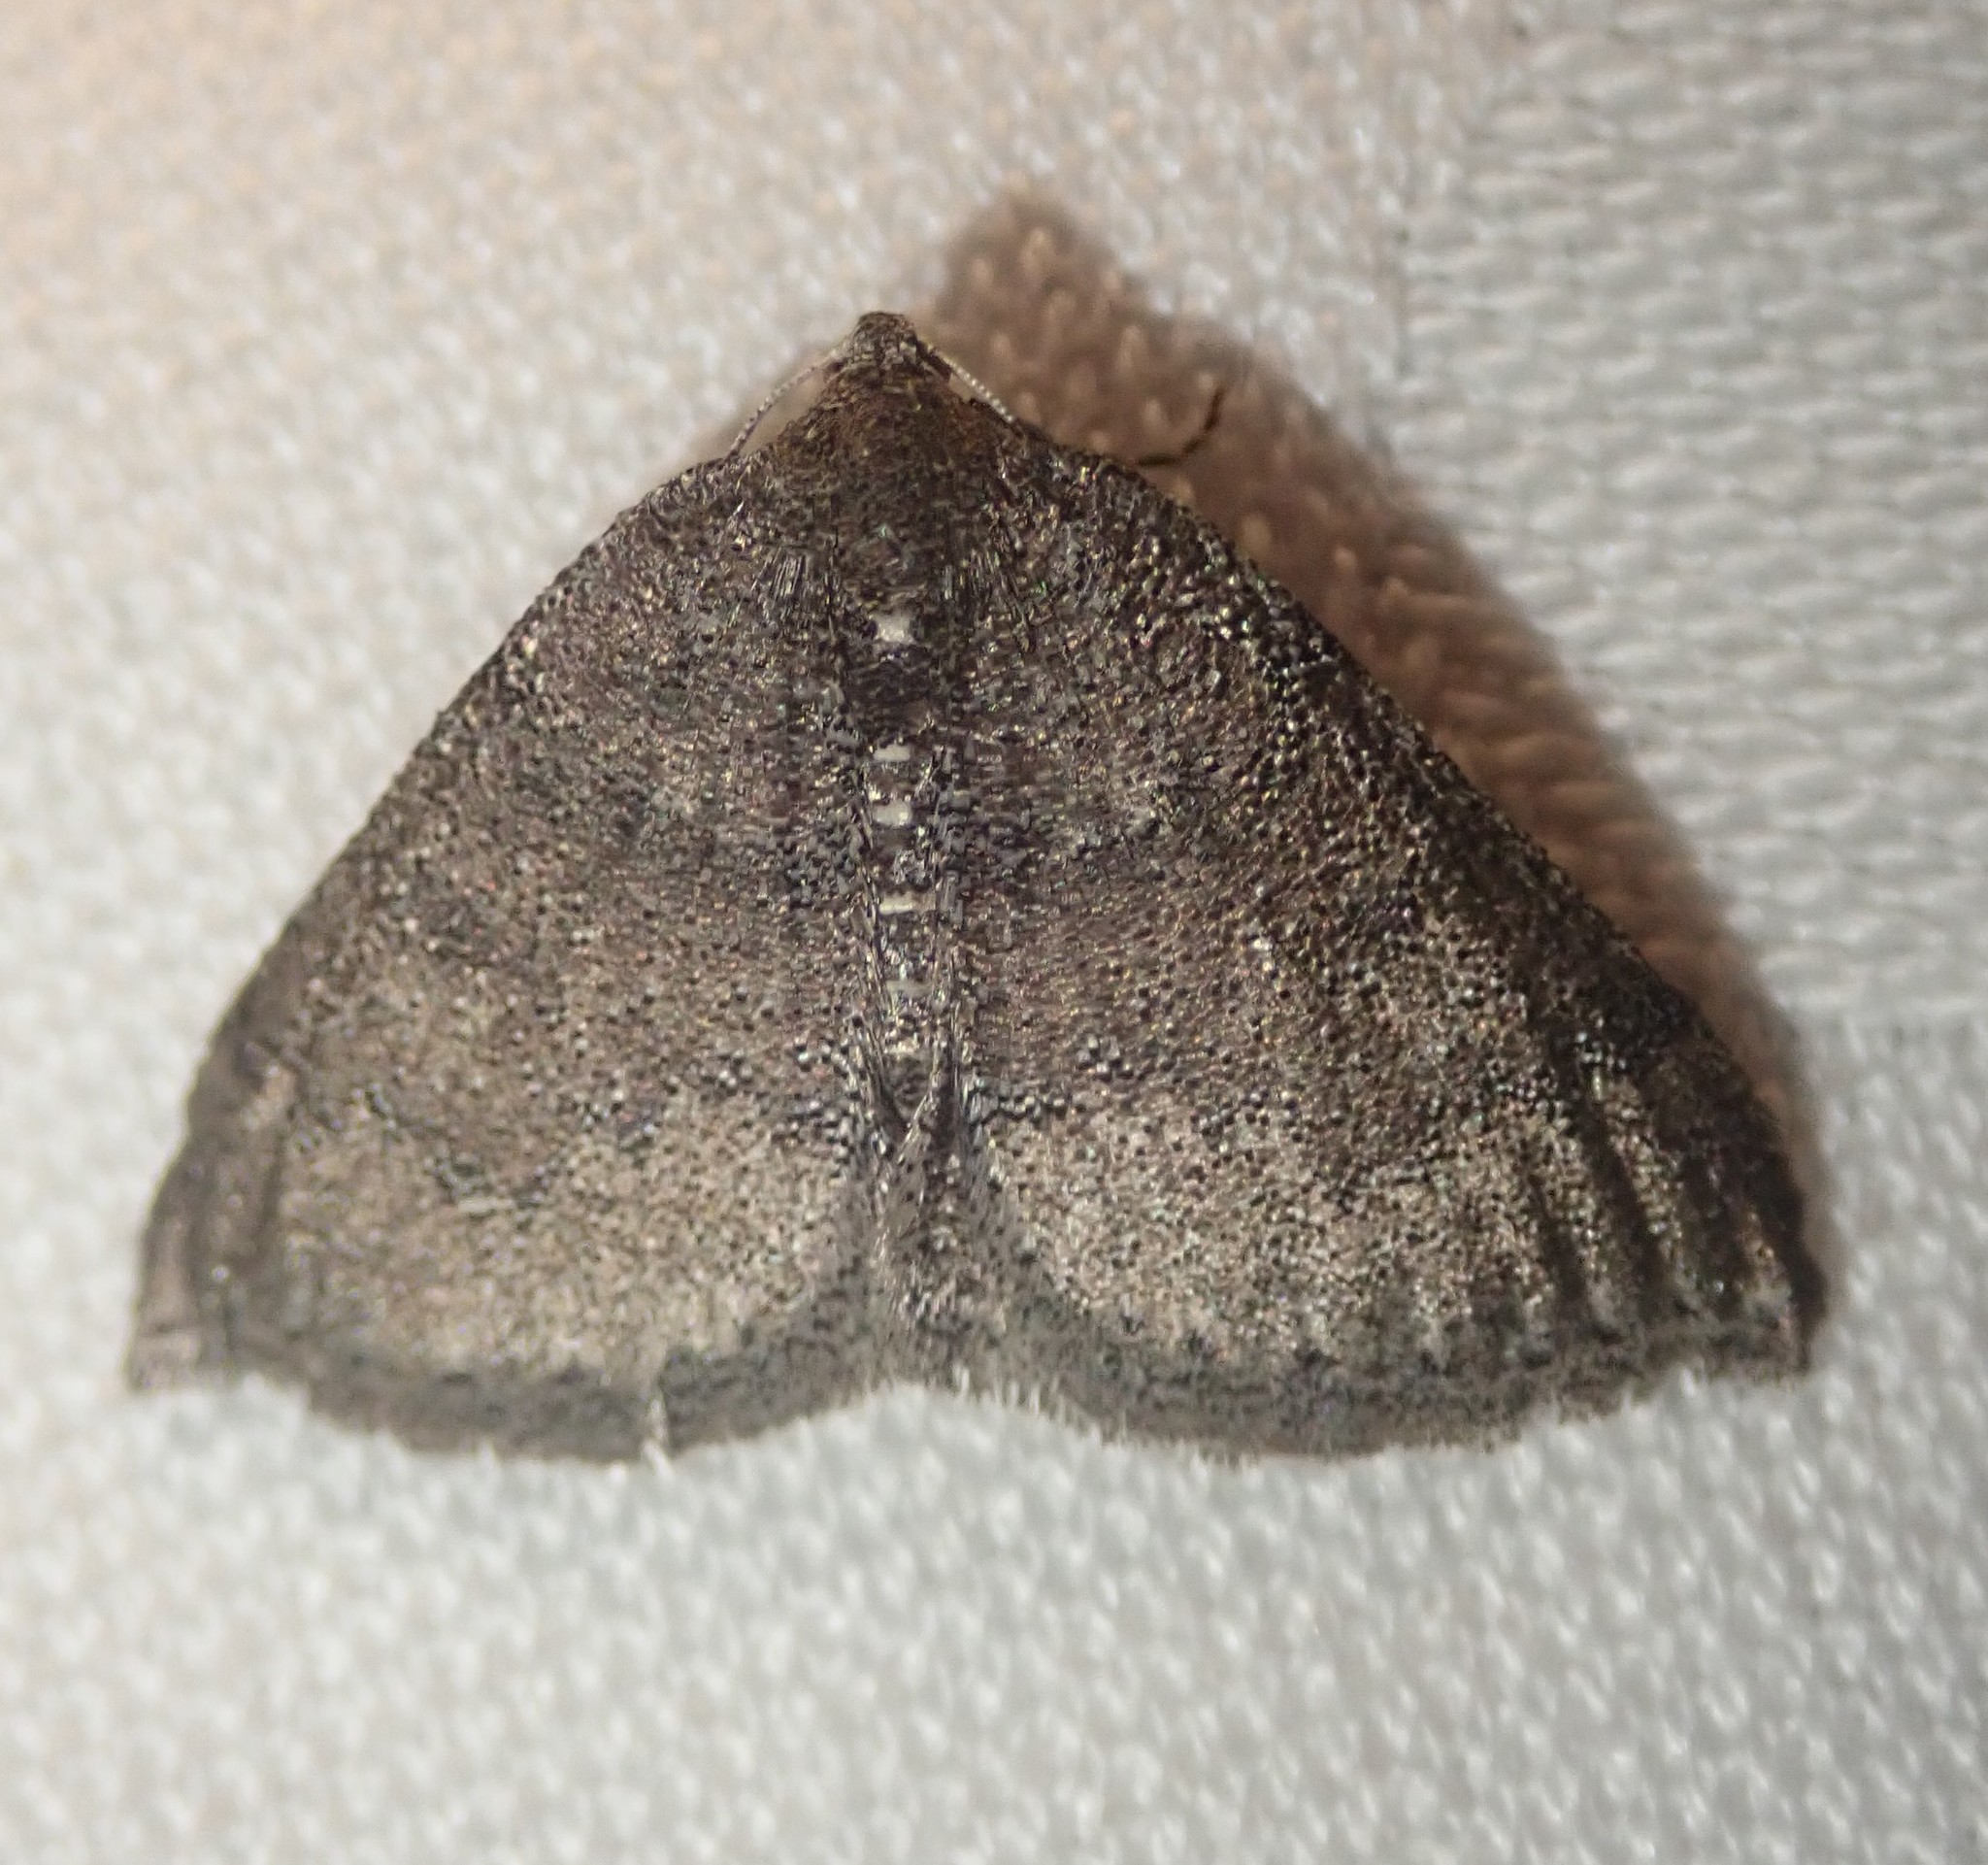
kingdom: Animalia
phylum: Arthropoda
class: Insecta
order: Lepidoptera
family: Geometridae
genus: Aleucis
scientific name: Aleucis distinctata
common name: Sloe carpet
